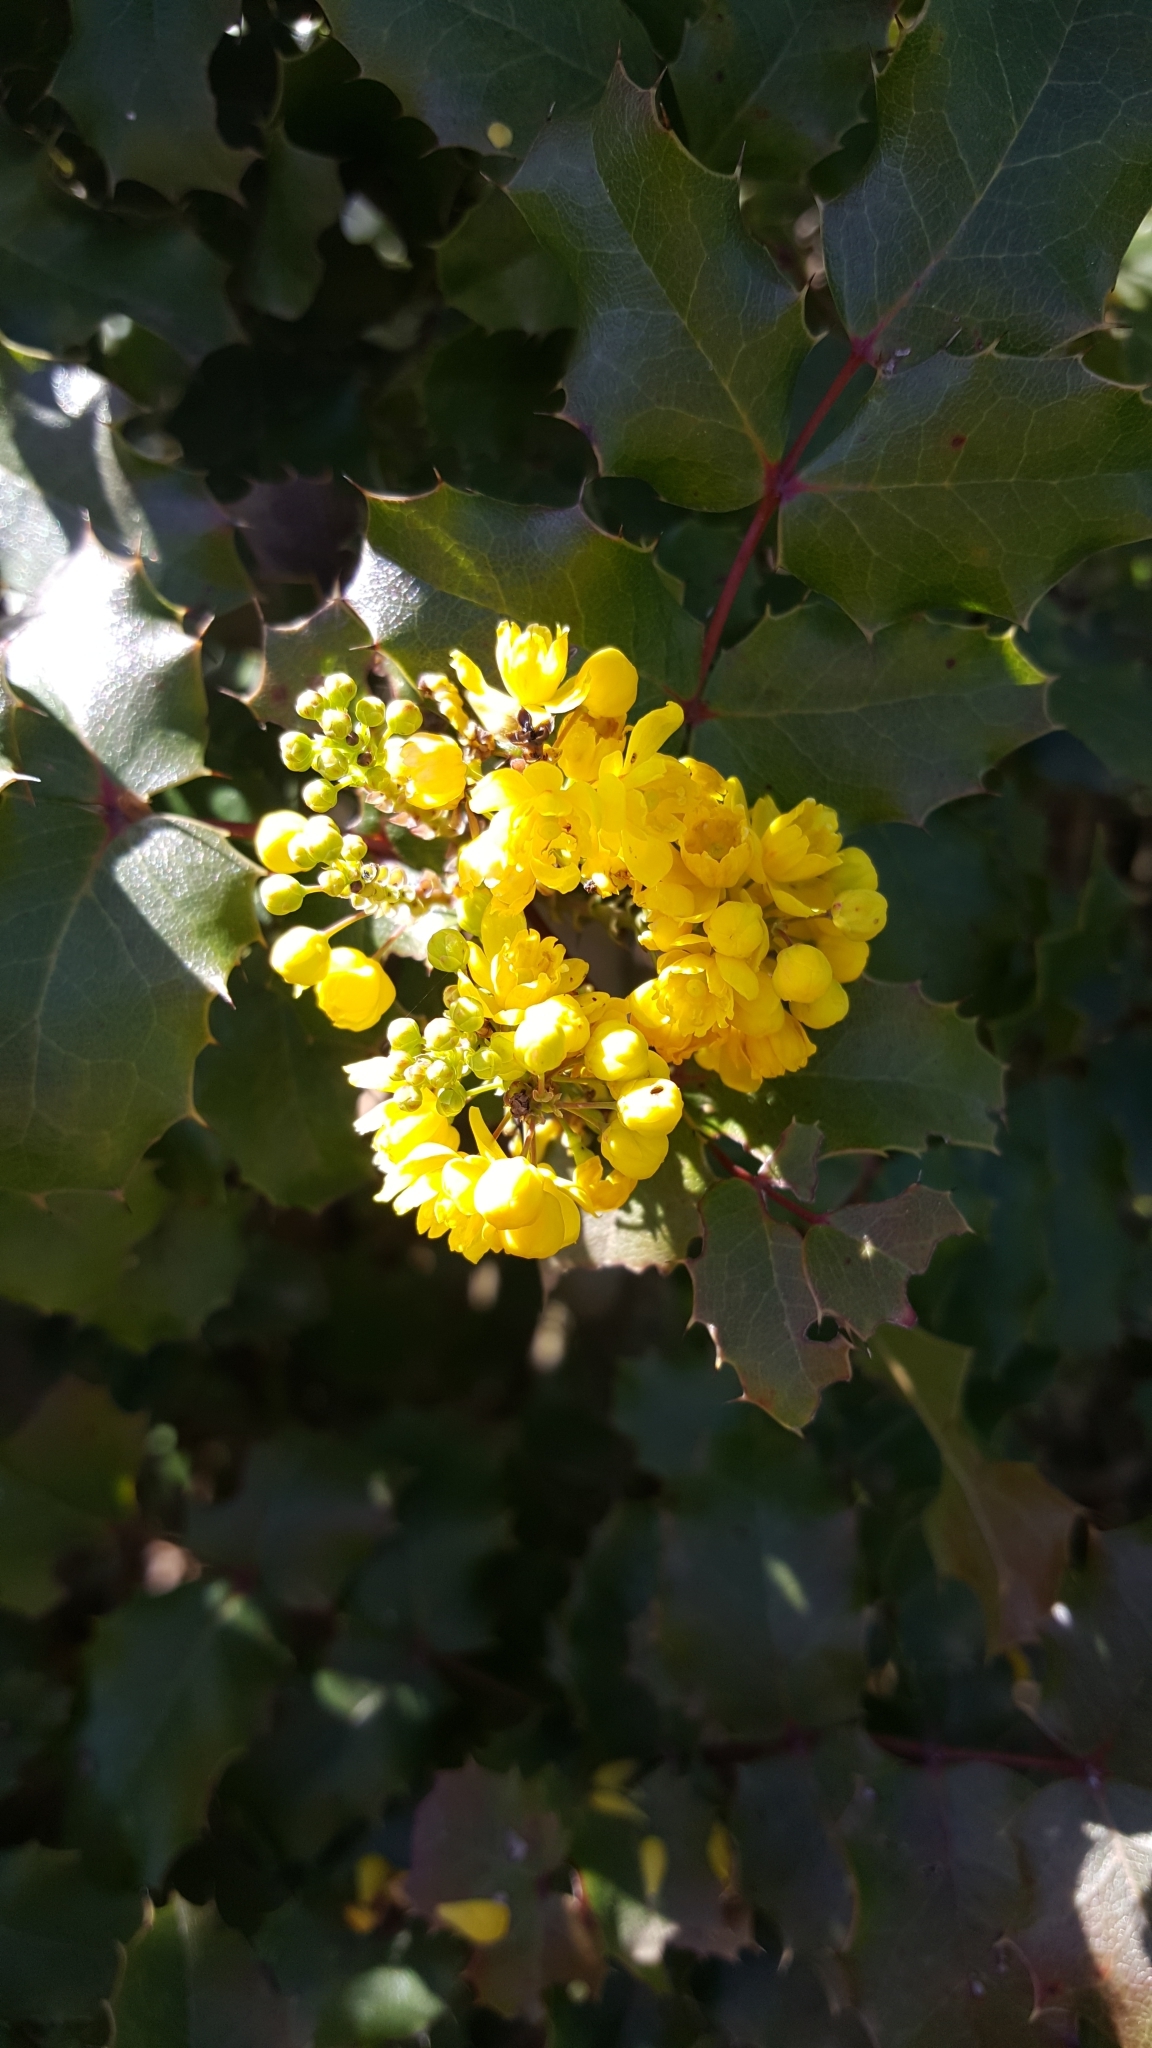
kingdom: Plantae
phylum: Tracheophyta
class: Magnoliopsida
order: Ranunculales
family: Berberidaceae
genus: Mahonia
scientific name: Mahonia
